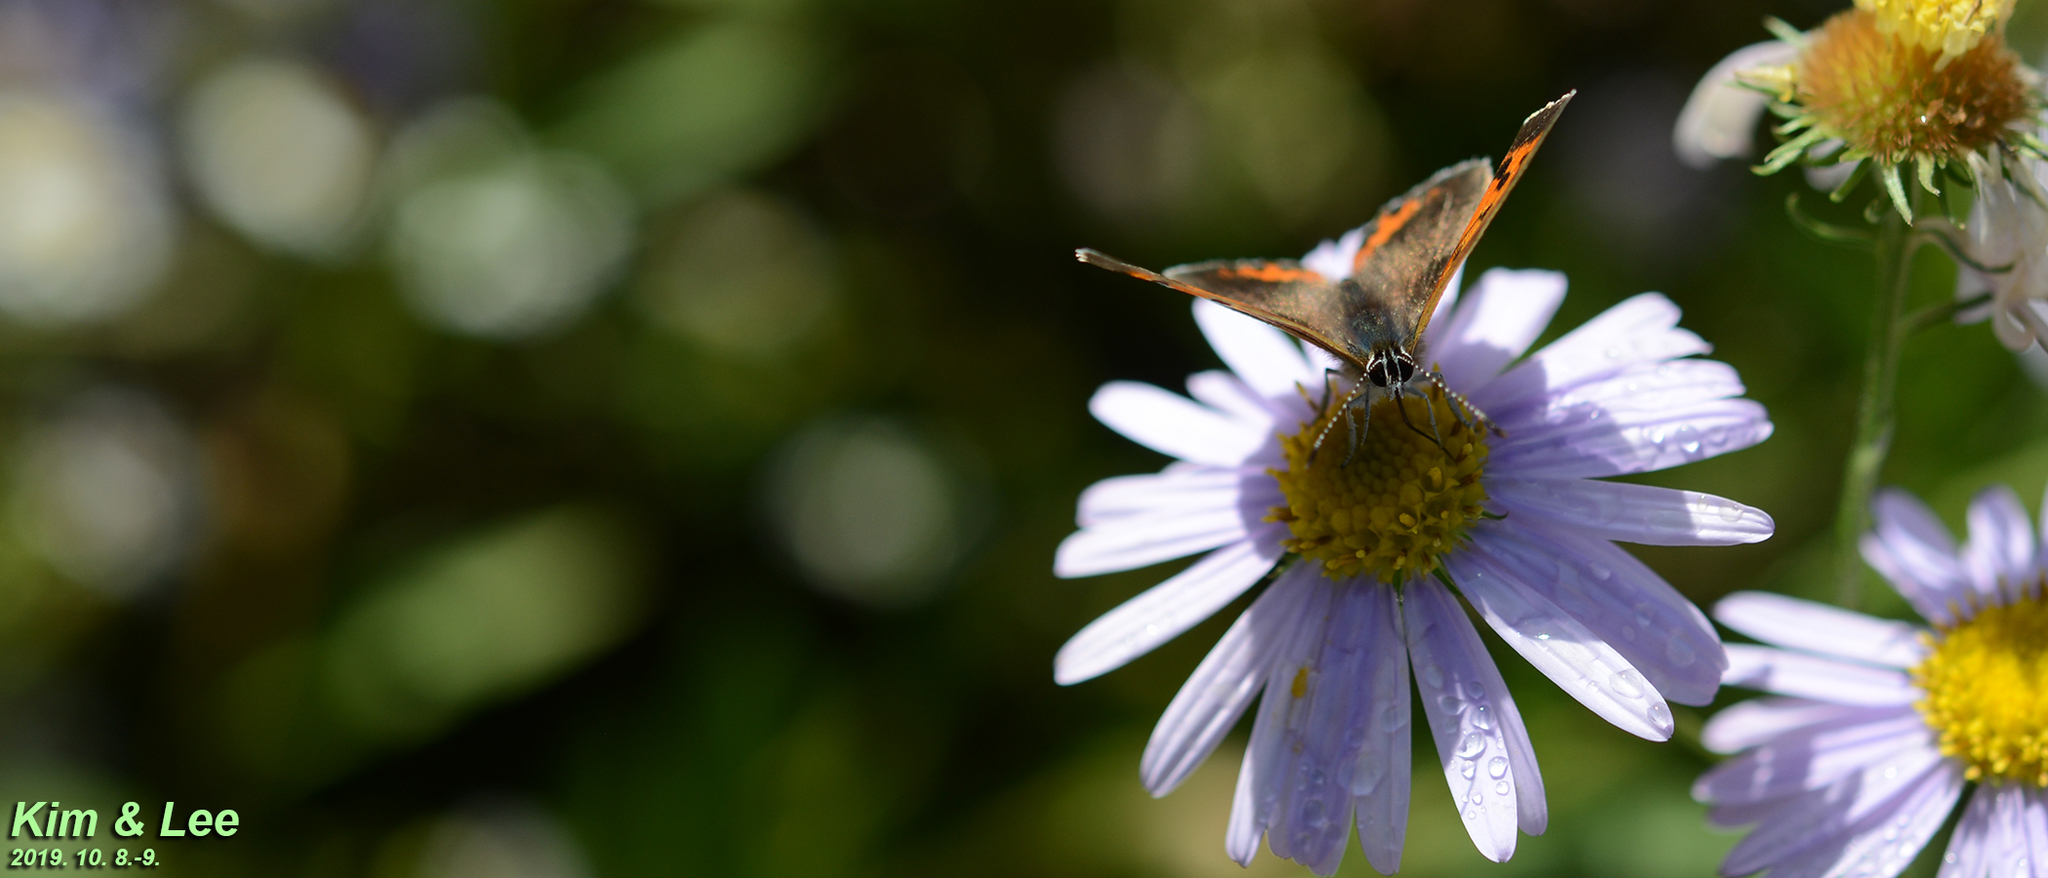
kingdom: Animalia
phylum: Arthropoda
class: Insecta
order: Lepidoptera
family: Lycaenidae
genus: Lycaena
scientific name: Lycaena phlaeas
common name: Small copper
